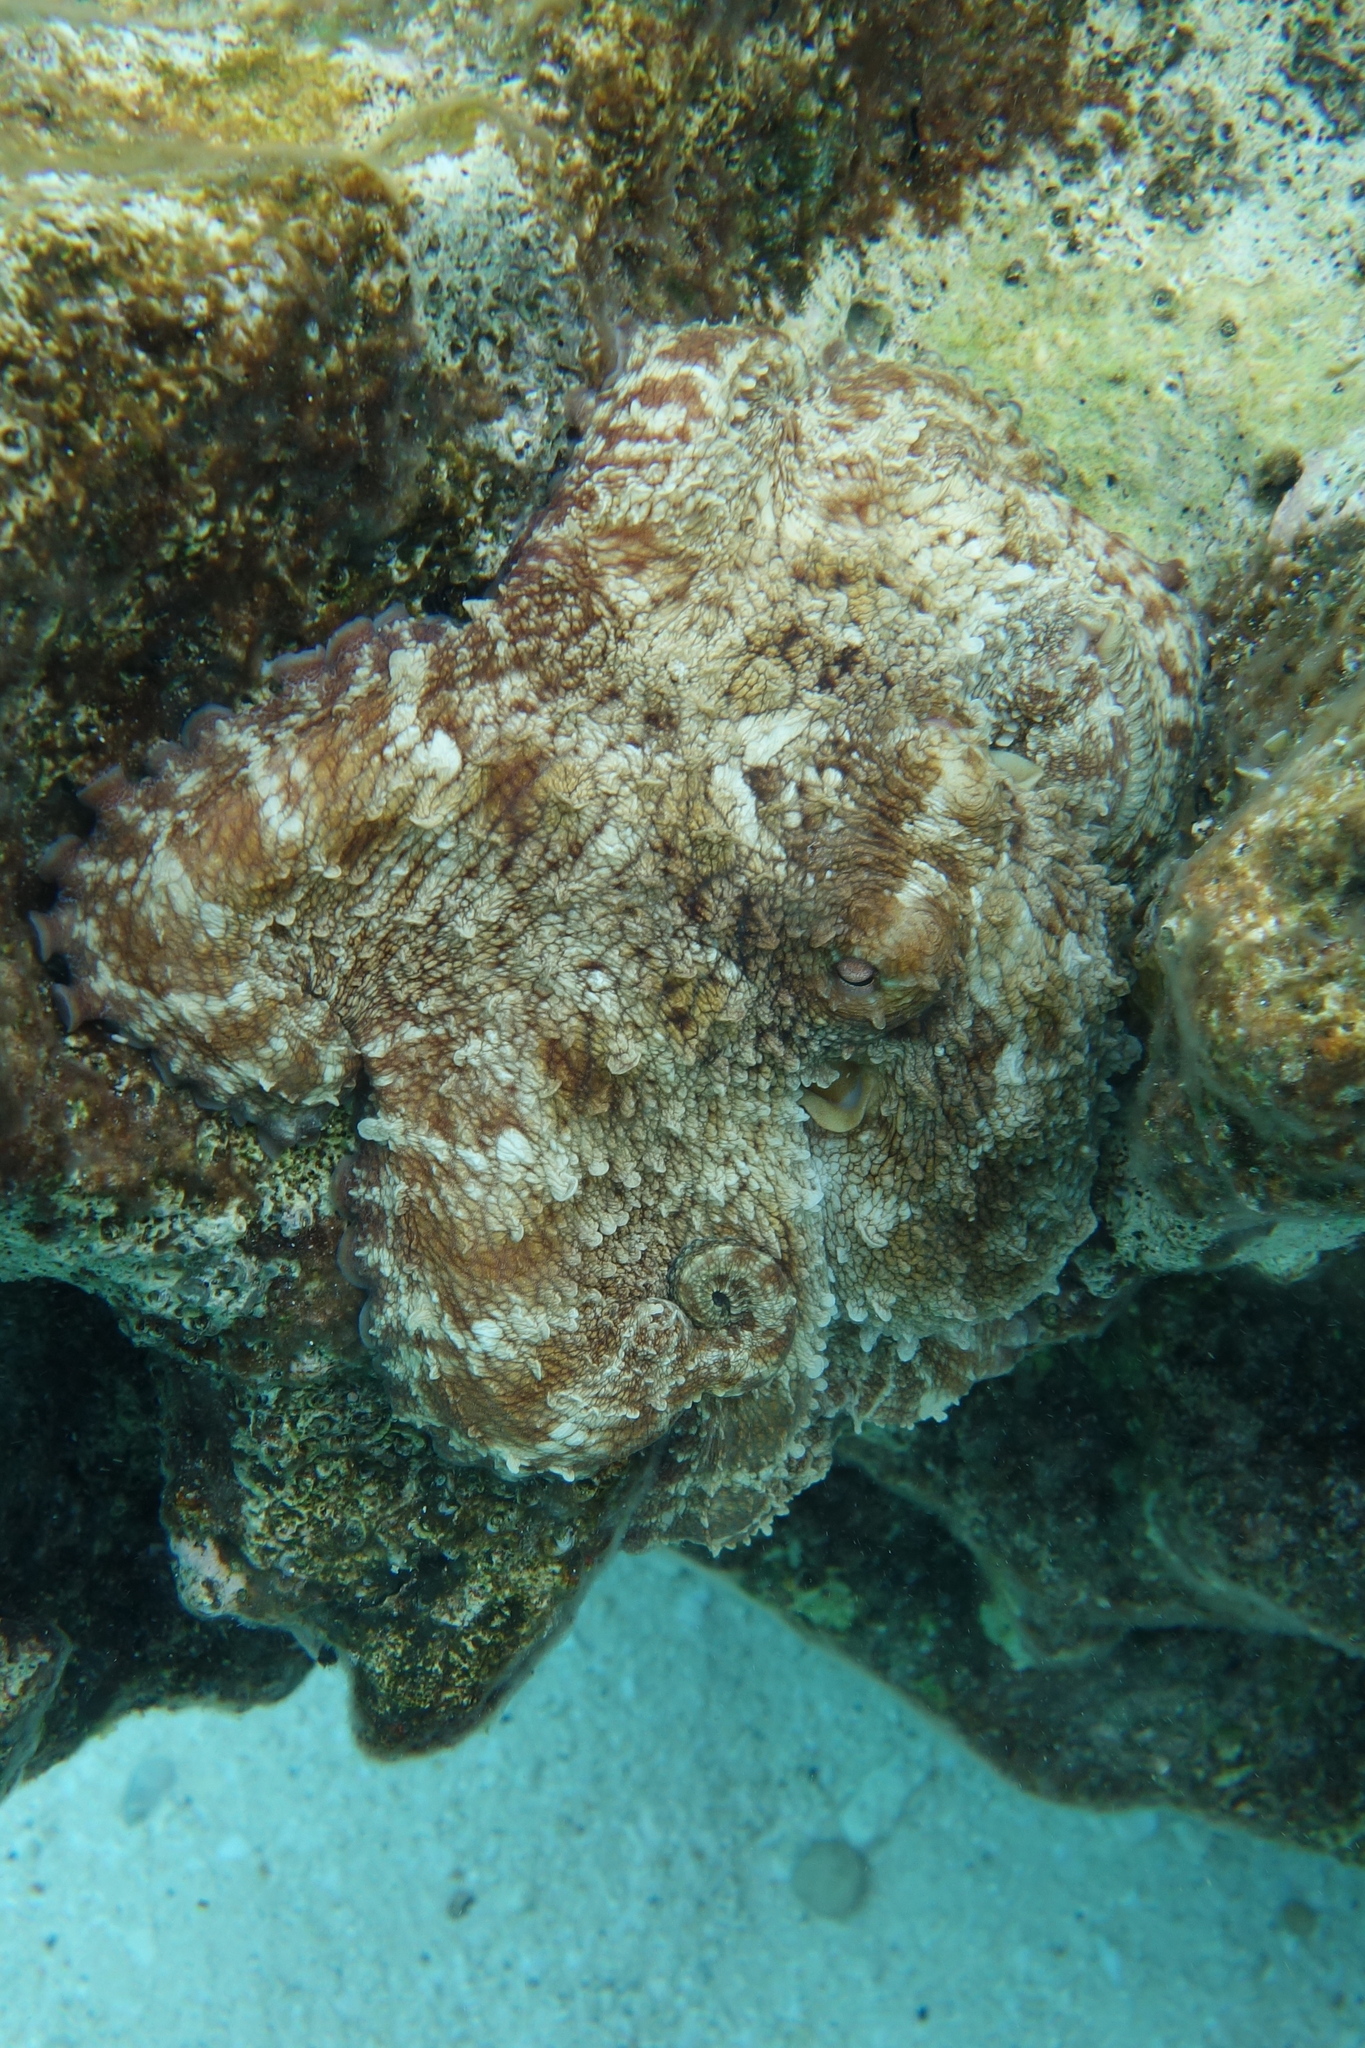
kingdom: Animalia
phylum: Mollusca
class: Cephalopoda
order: Octopoda
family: Octopodidae
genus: Octopus
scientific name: Octopus insularis
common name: Brazil reef octopus
